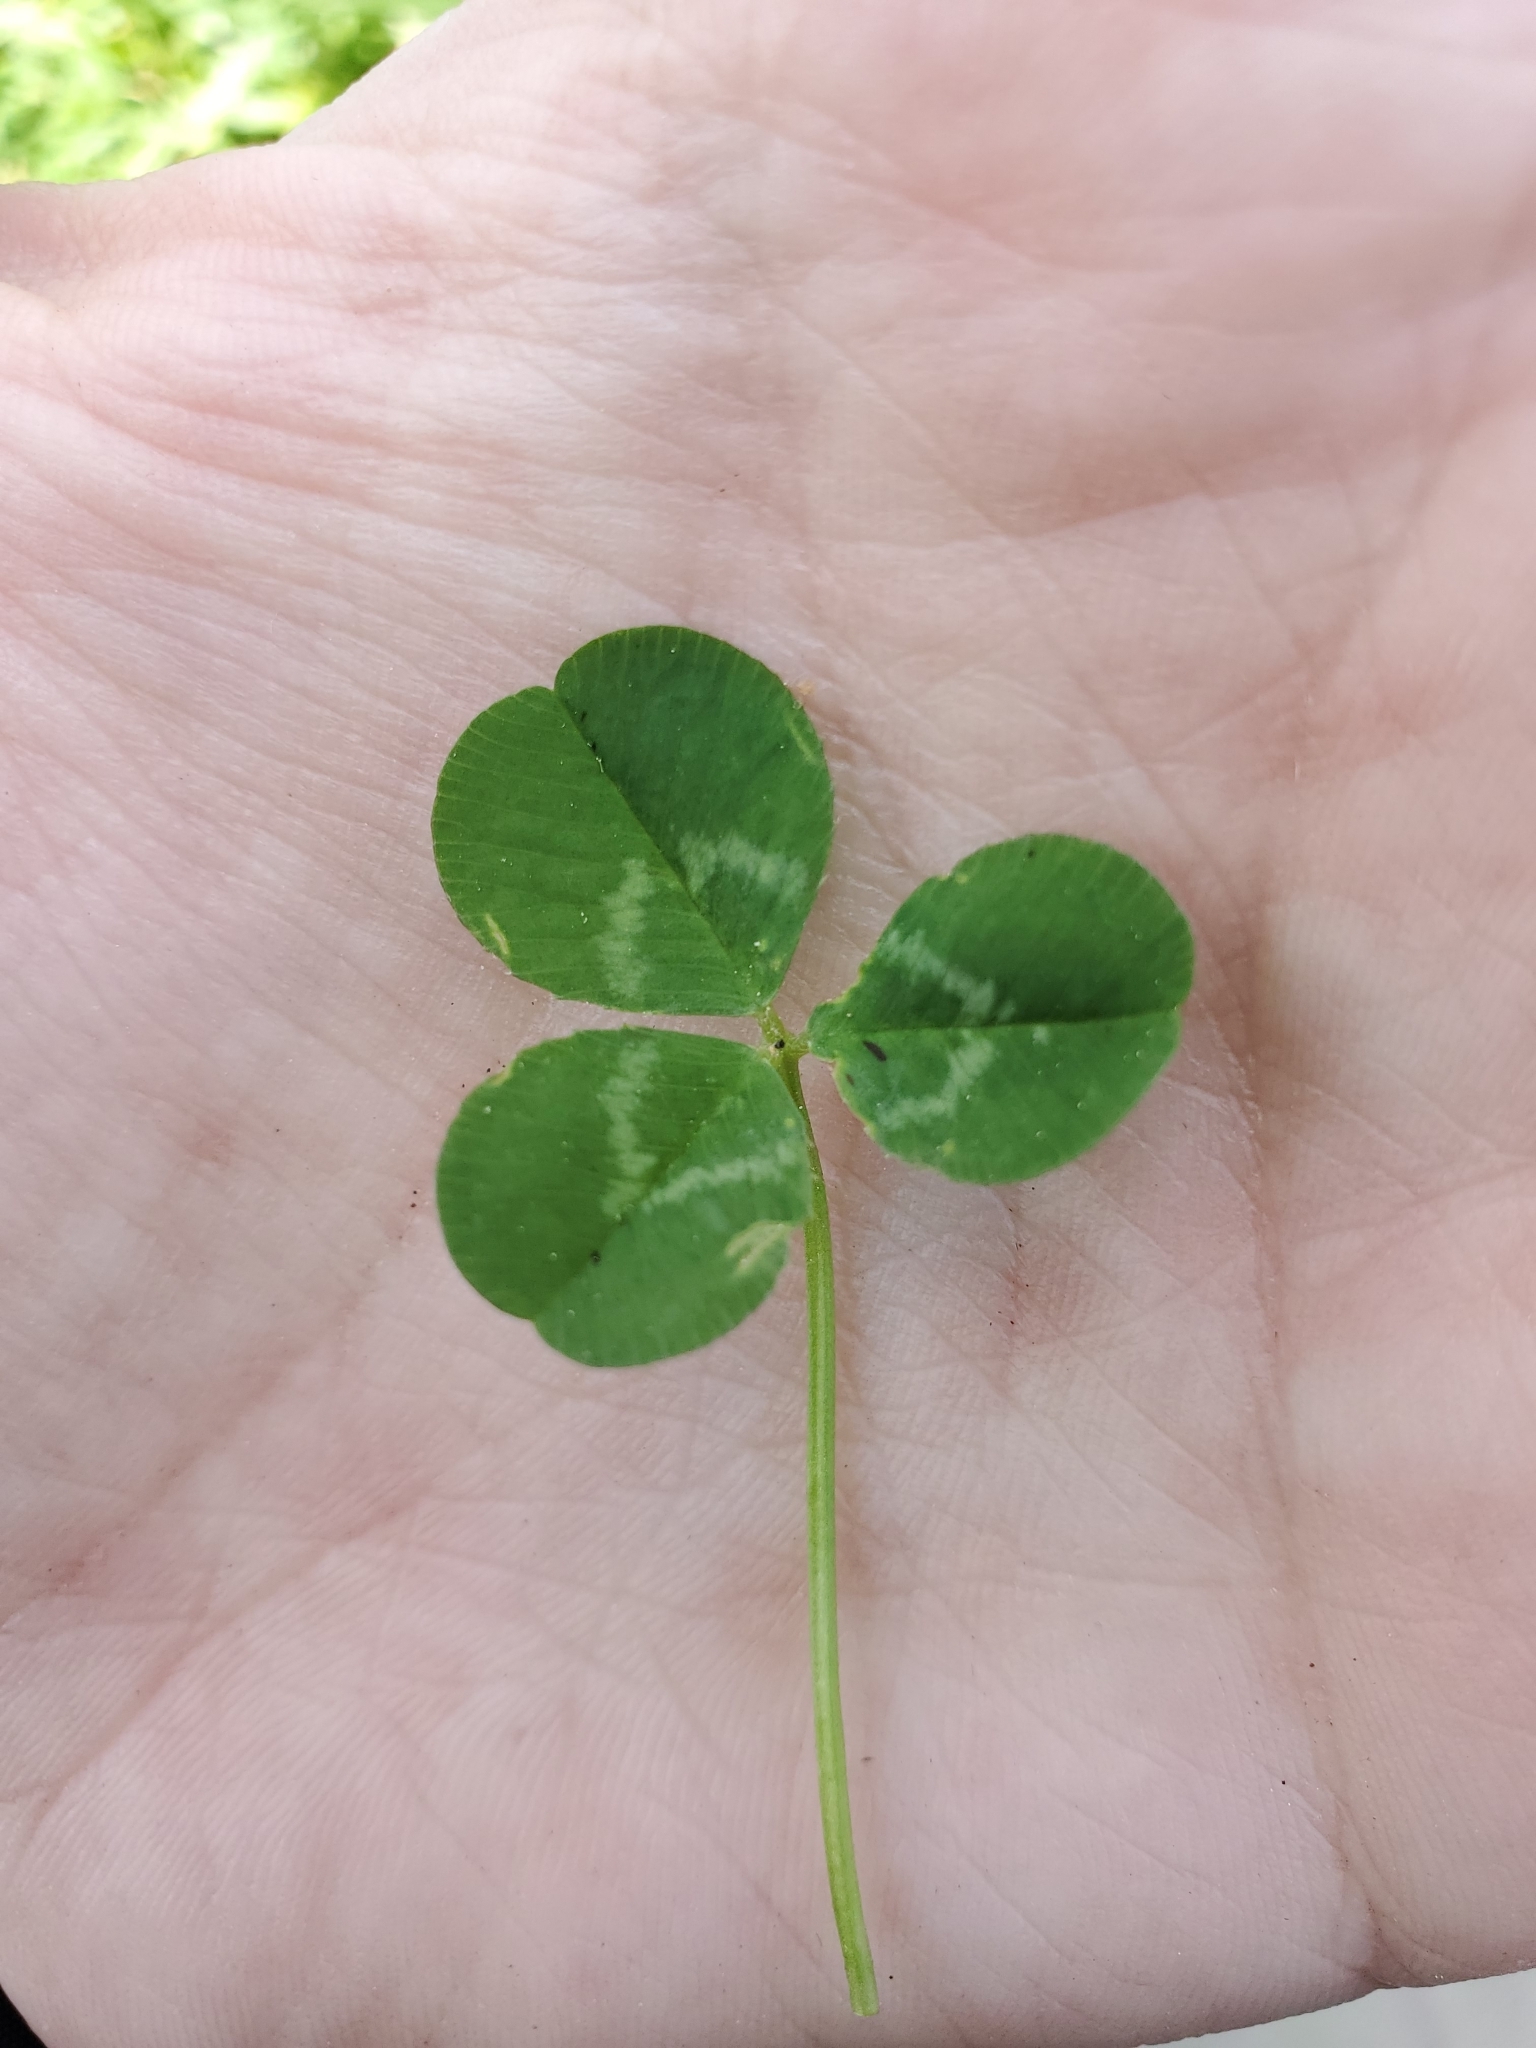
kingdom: Plantae
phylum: Tracheophyta
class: Magnoliopsida
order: Fabales
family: Fabaceae
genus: Trifolium
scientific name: Trifolium repens
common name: White clover
